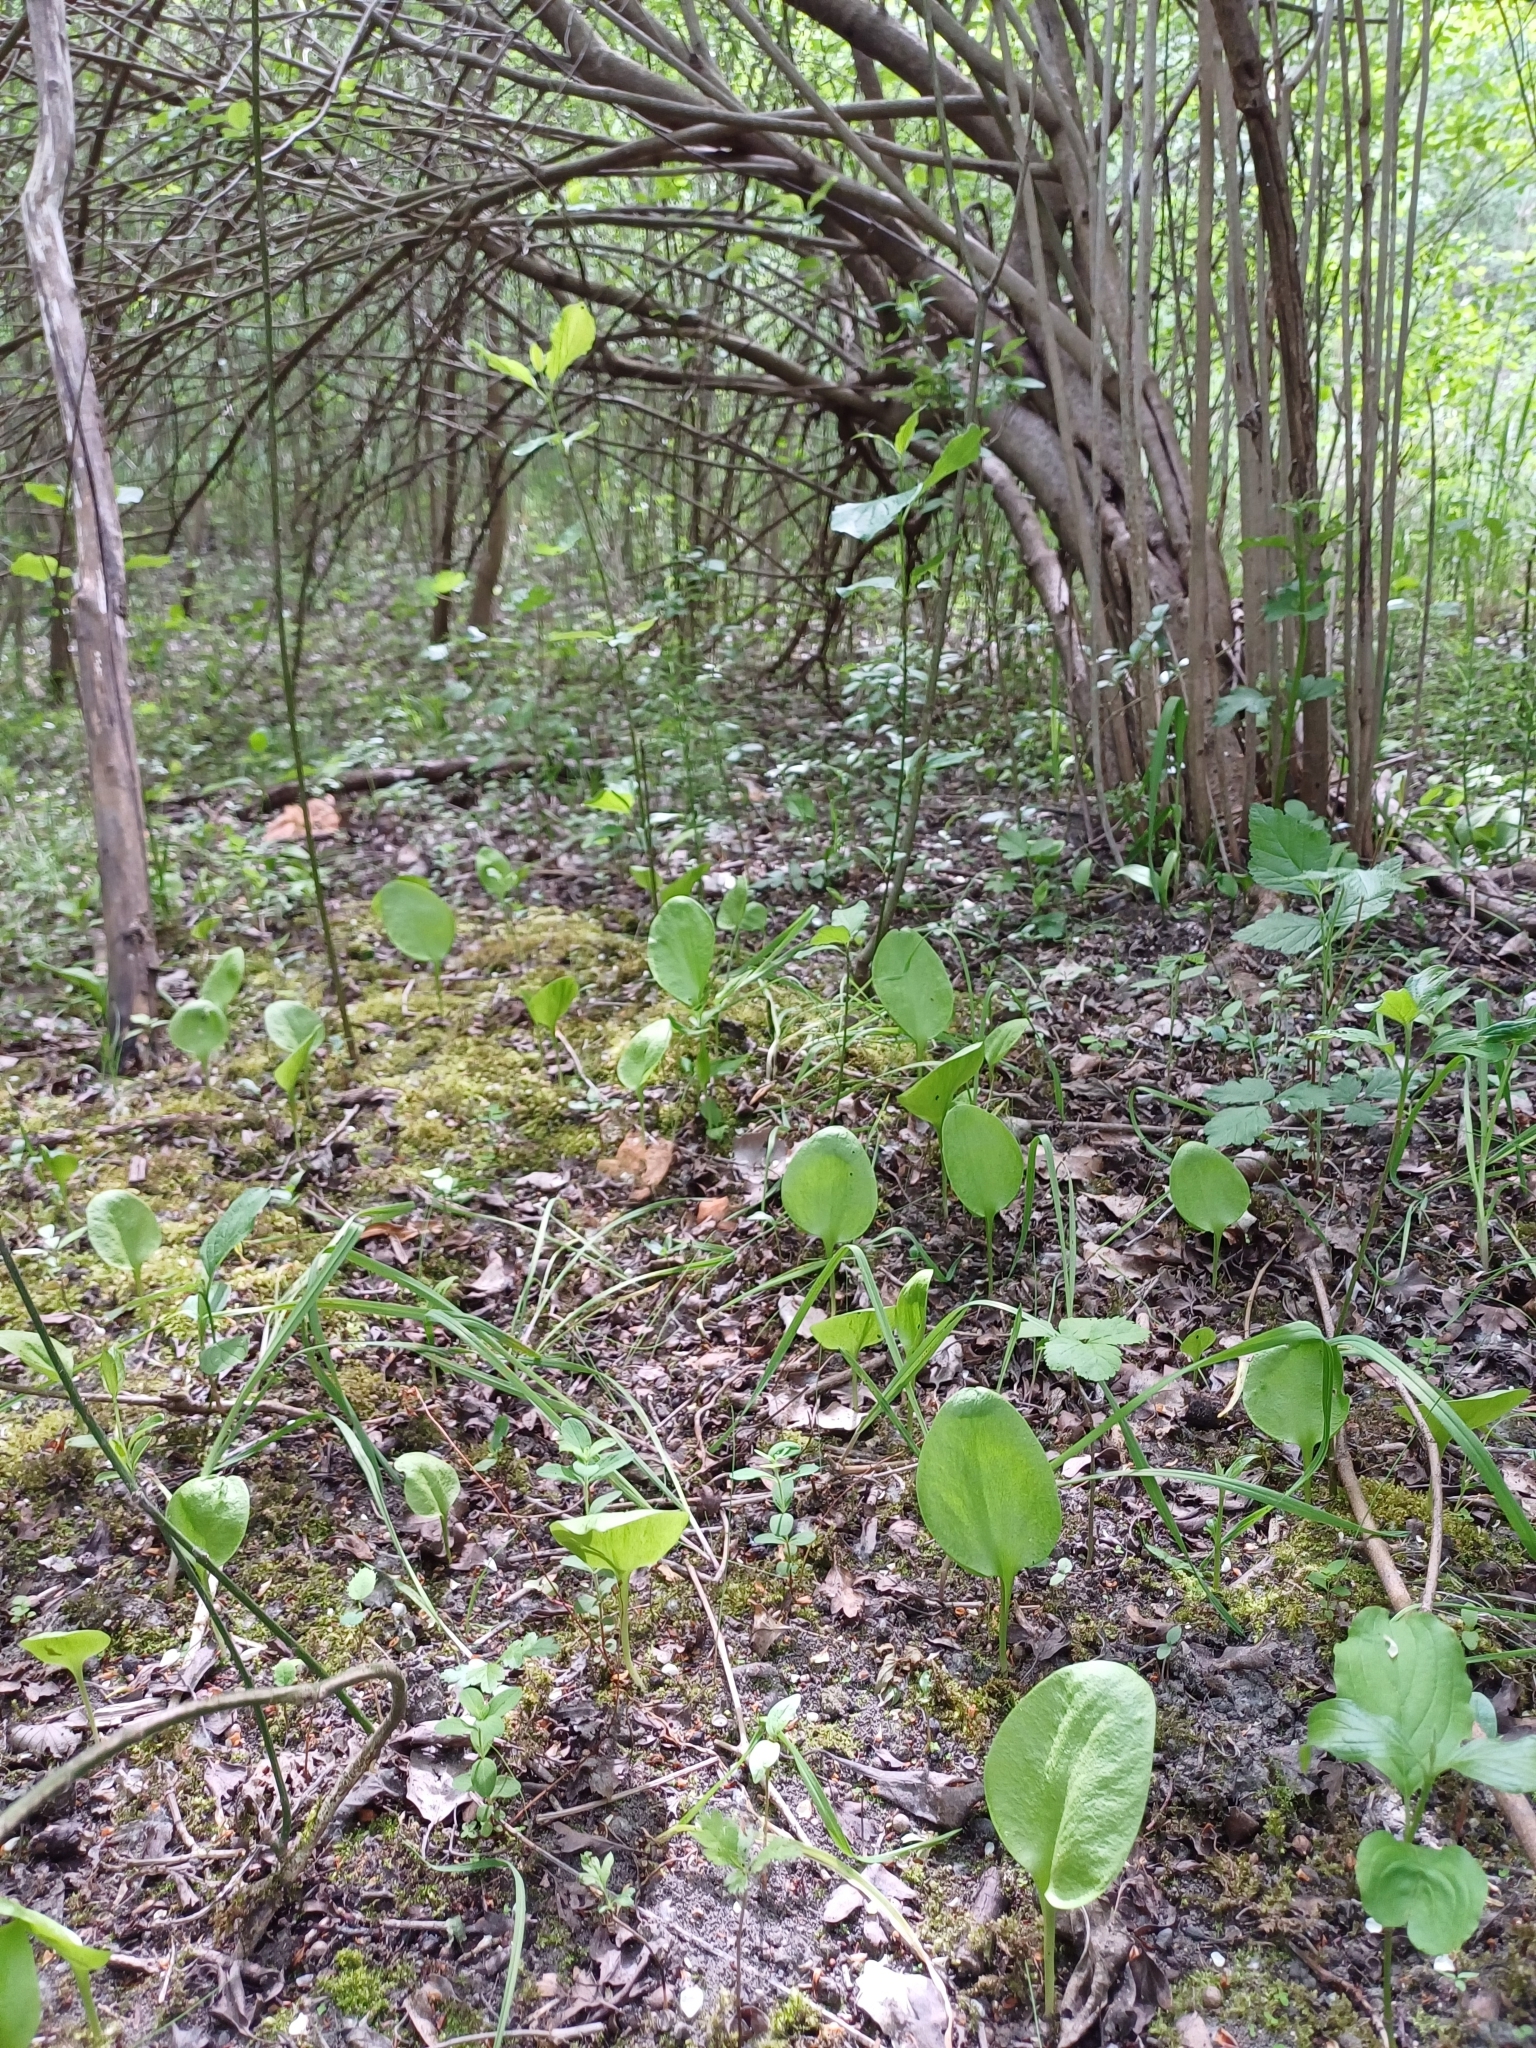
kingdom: Plantae
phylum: Tracheophyta
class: Polypodiopsida
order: Ophioglossales
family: Ophioglossaceae
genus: Ophioglossum
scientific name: Ophioglossum vulgatum
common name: Adder's-tongue
